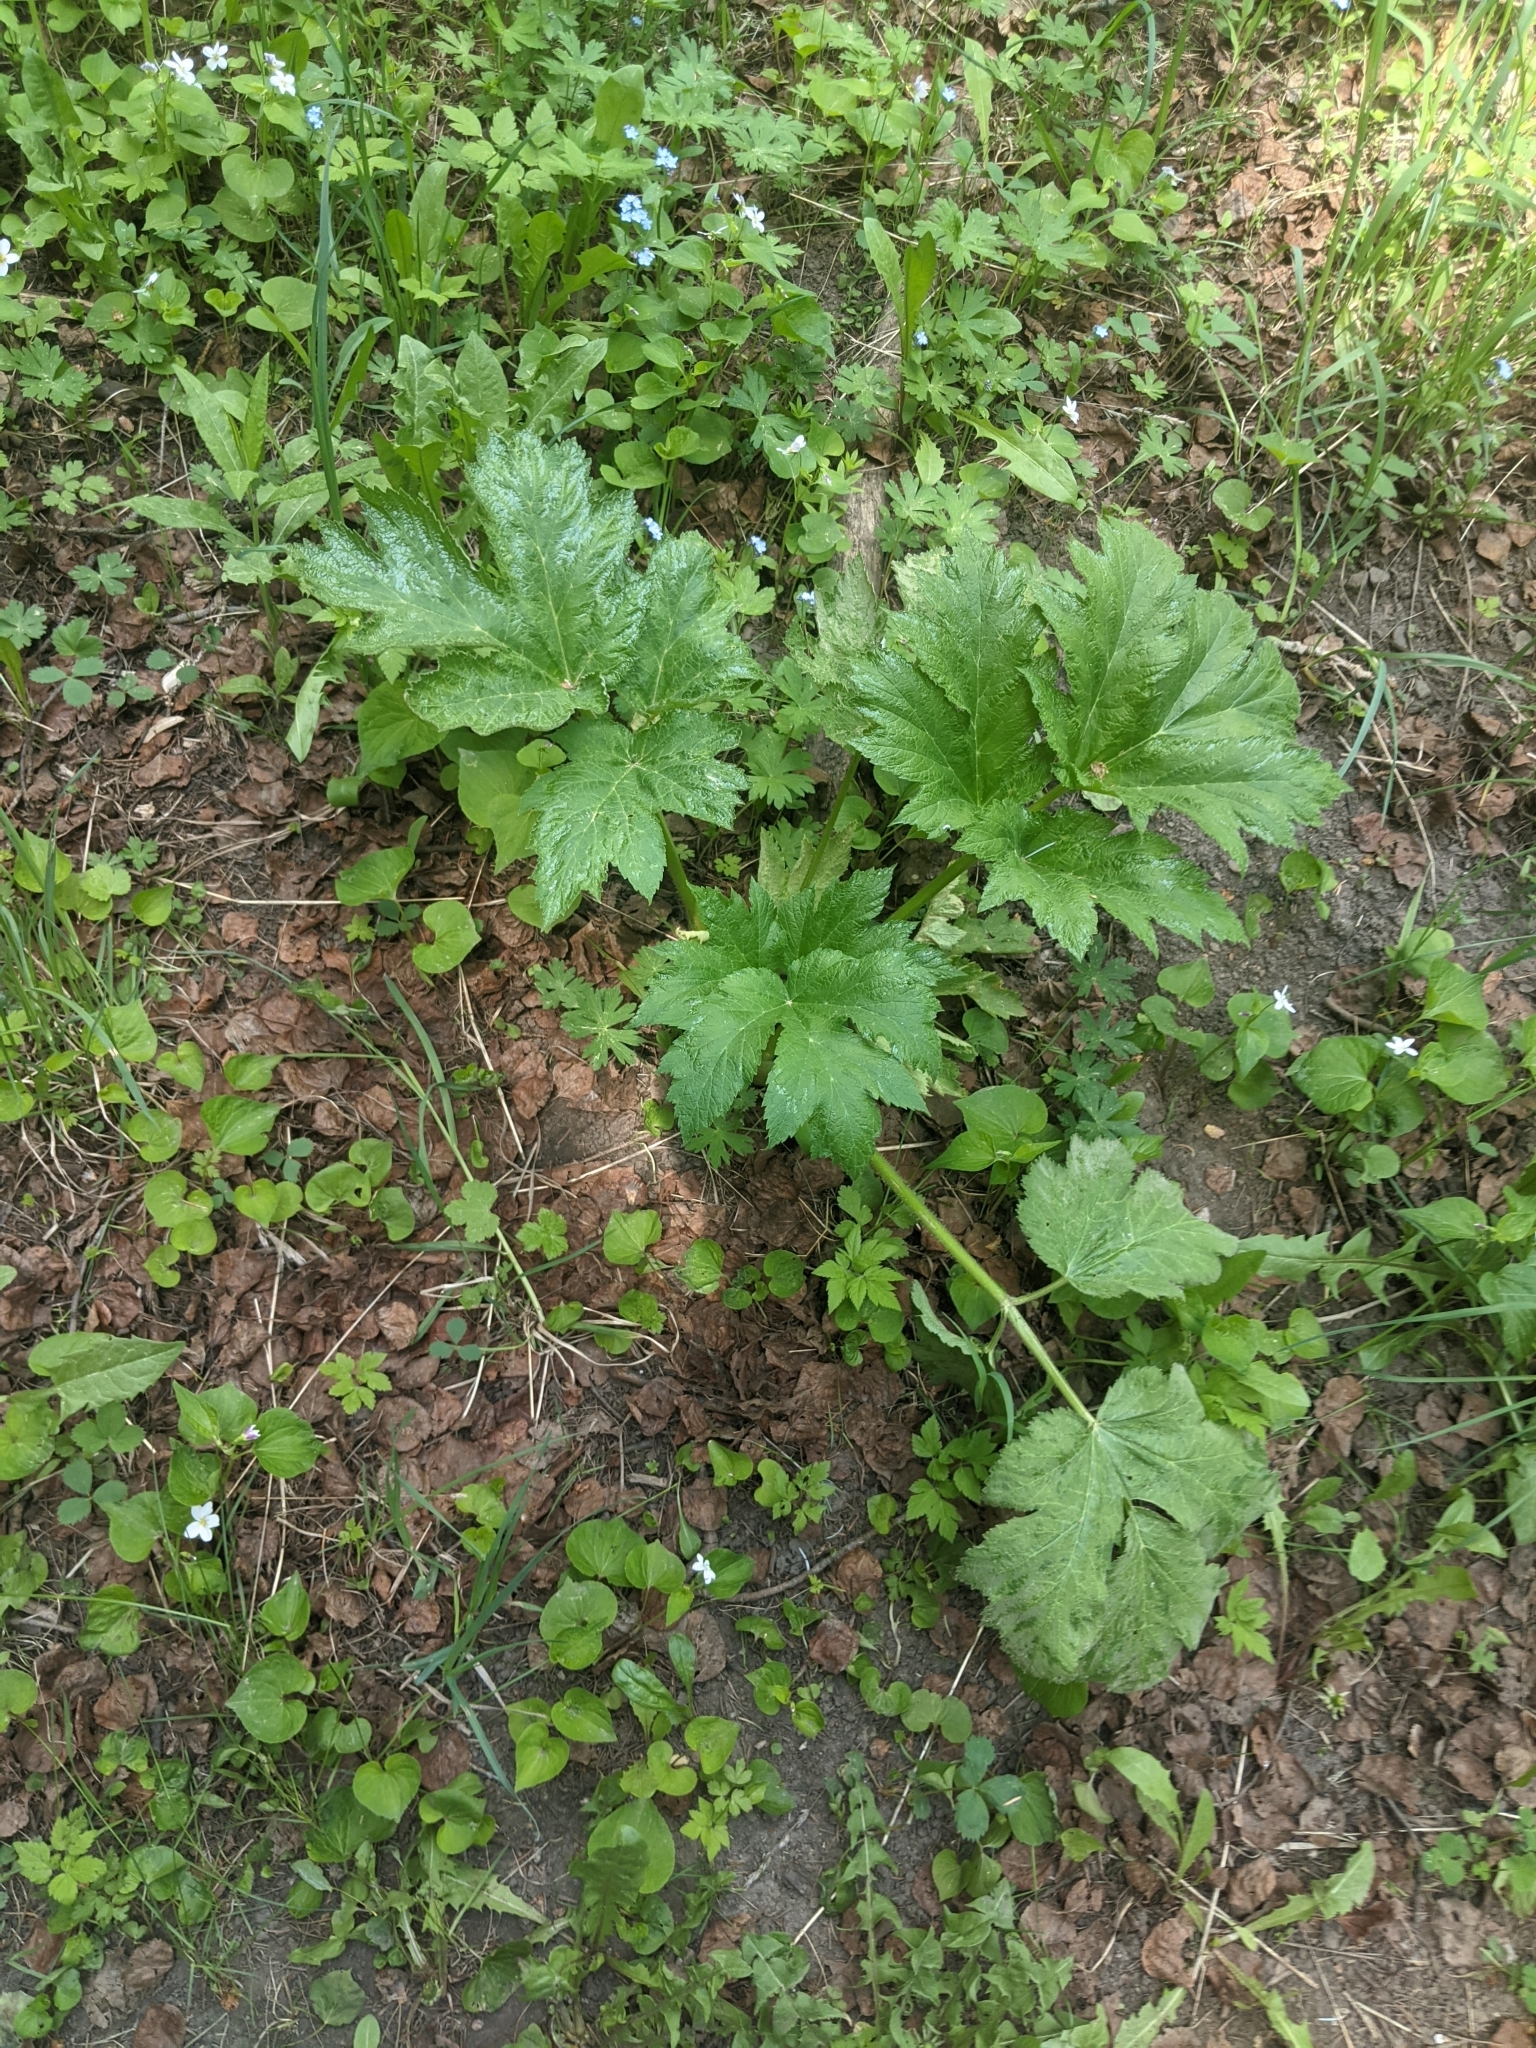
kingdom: Plantae
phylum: Tracheophyta
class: Magnoliopsida
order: Apiales
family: Apiaceae
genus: Heracleum
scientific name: Heracleum maximum
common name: American cow parsnip
